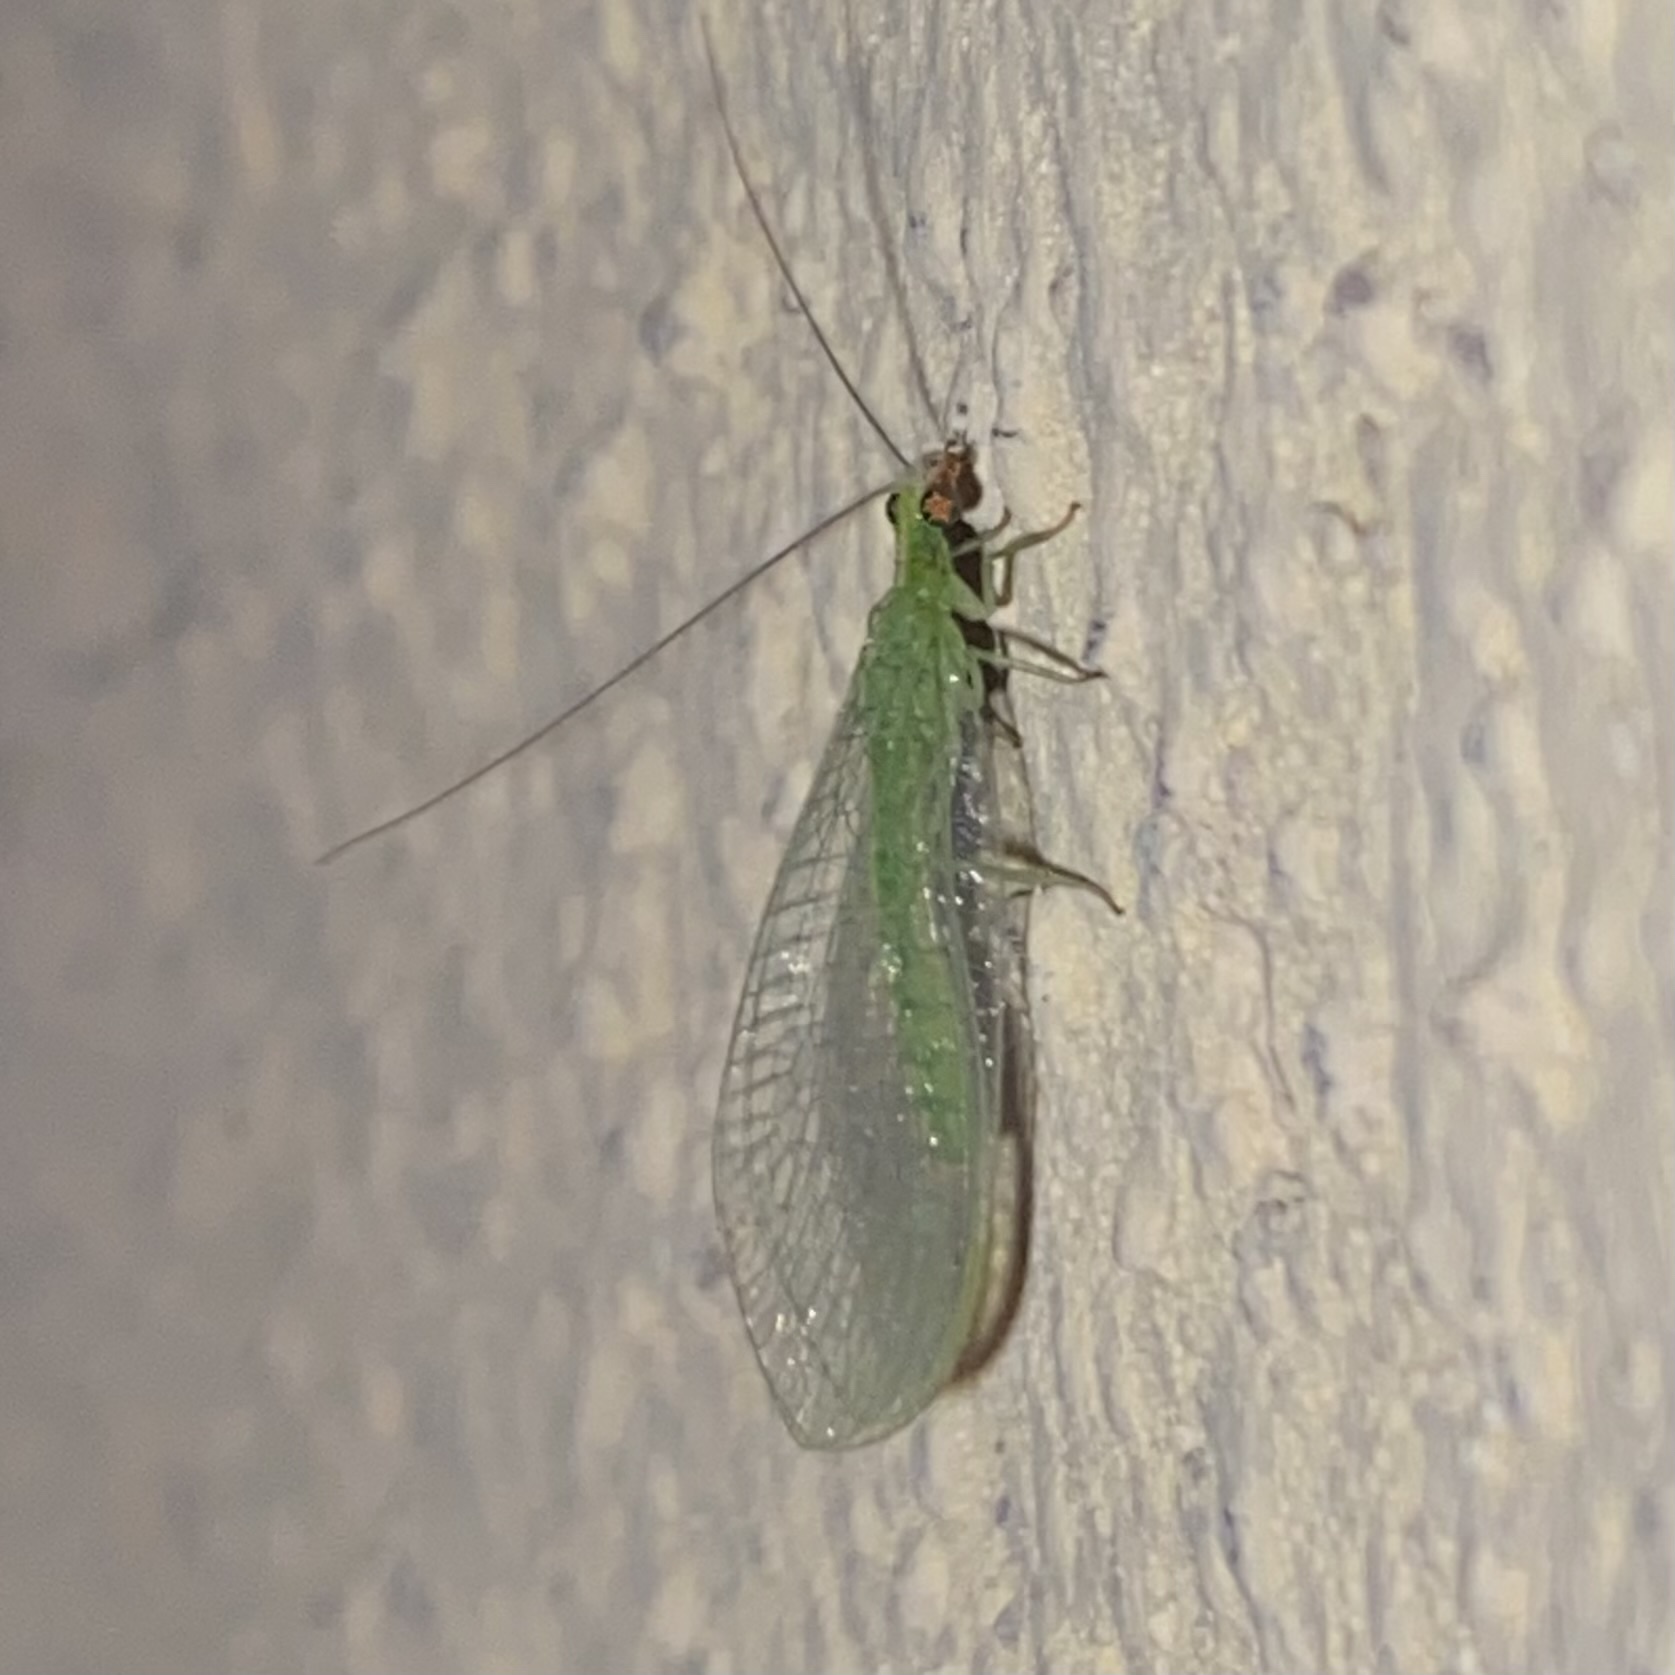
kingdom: Animalia
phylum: Arthropoda
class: Insecta
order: Neuroptera
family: Chrysopidae
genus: Chrysoperla
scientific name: Chrysoperla
